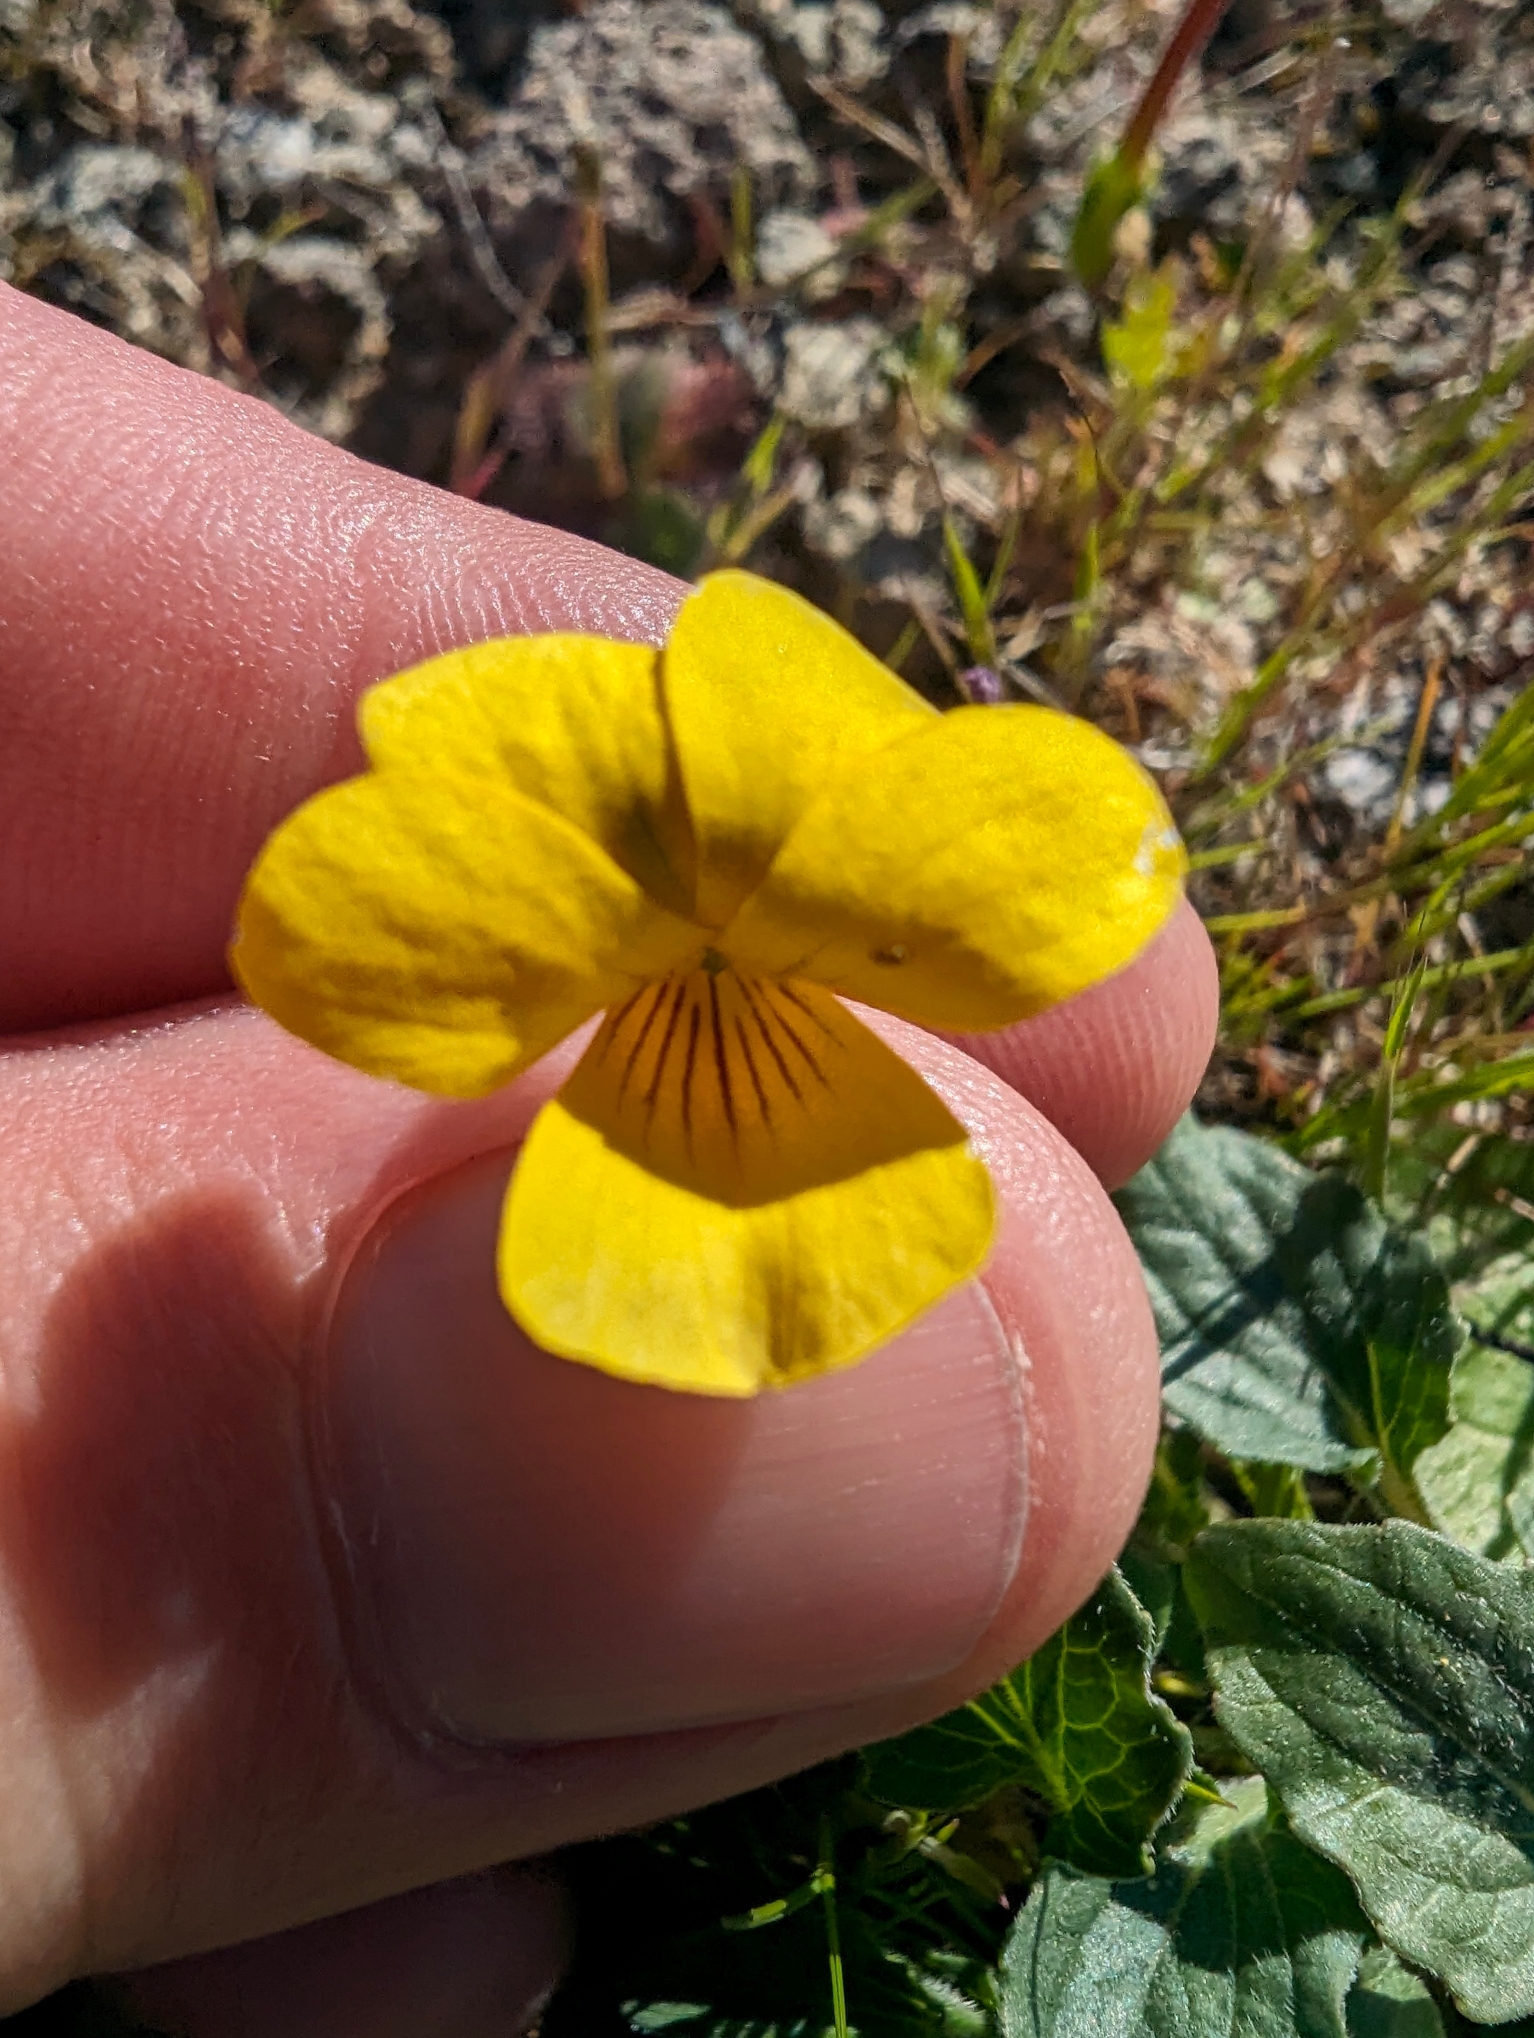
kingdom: Plantae
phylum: Tracheophyta
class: Magnoliopsida
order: Malpighiales
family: Violaceae
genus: Viola
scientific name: Viola quercetorum
